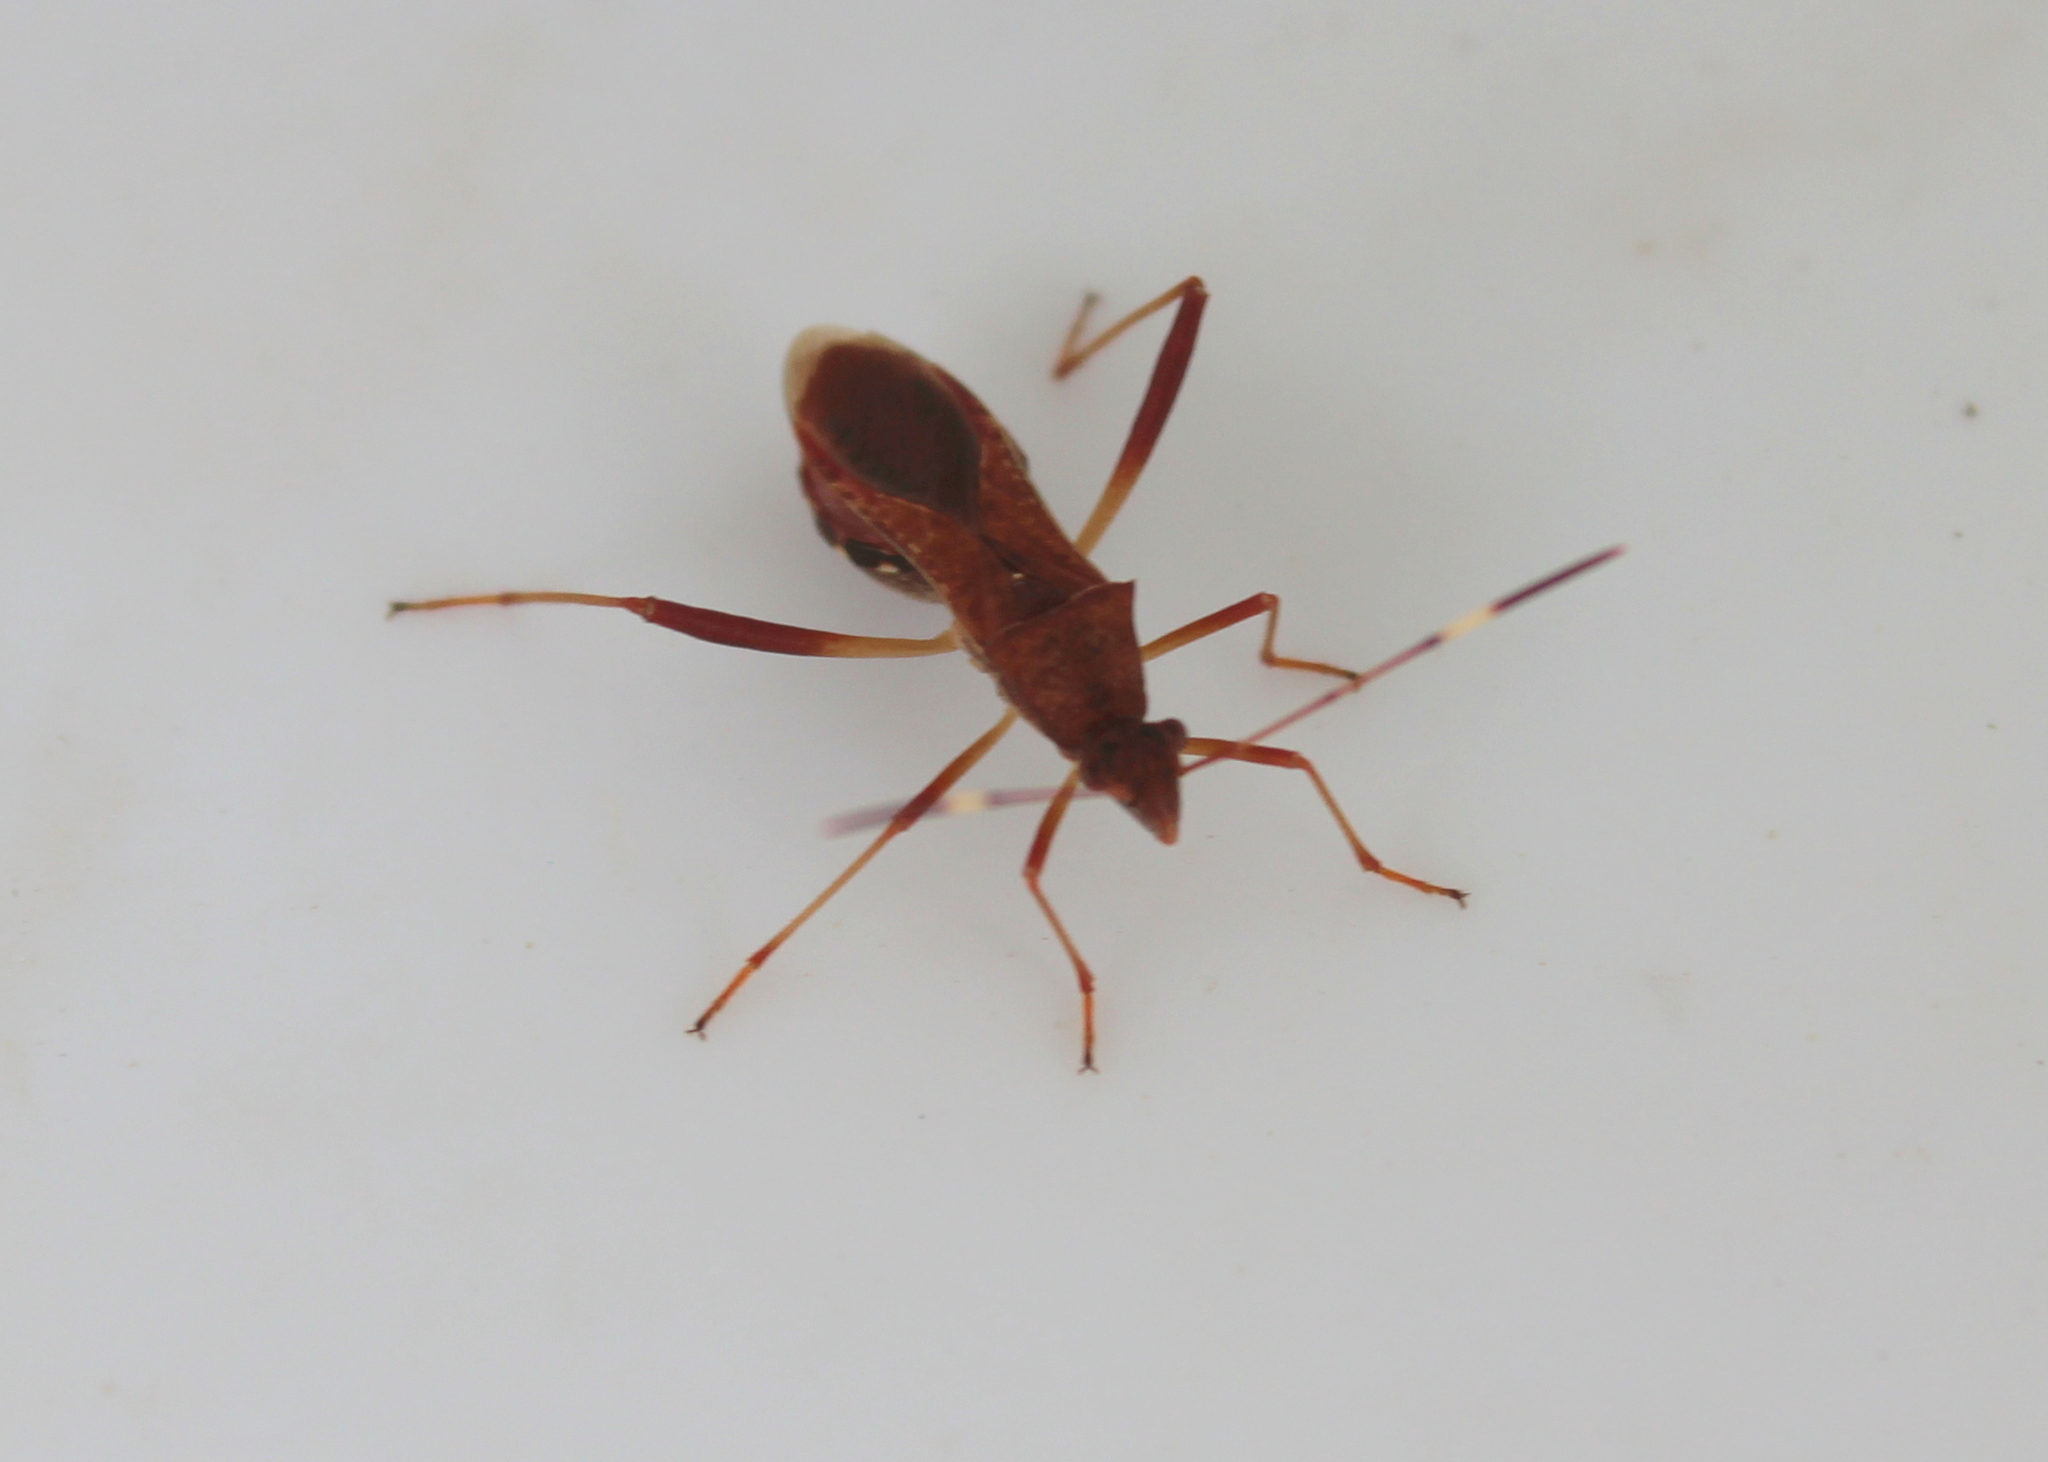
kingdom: Animalia
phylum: Arthropoda
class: Insecta
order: Hemiptera
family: Alydidae
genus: Megalotomus
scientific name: Megalotomus quinquespinosus
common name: Lupine bug
